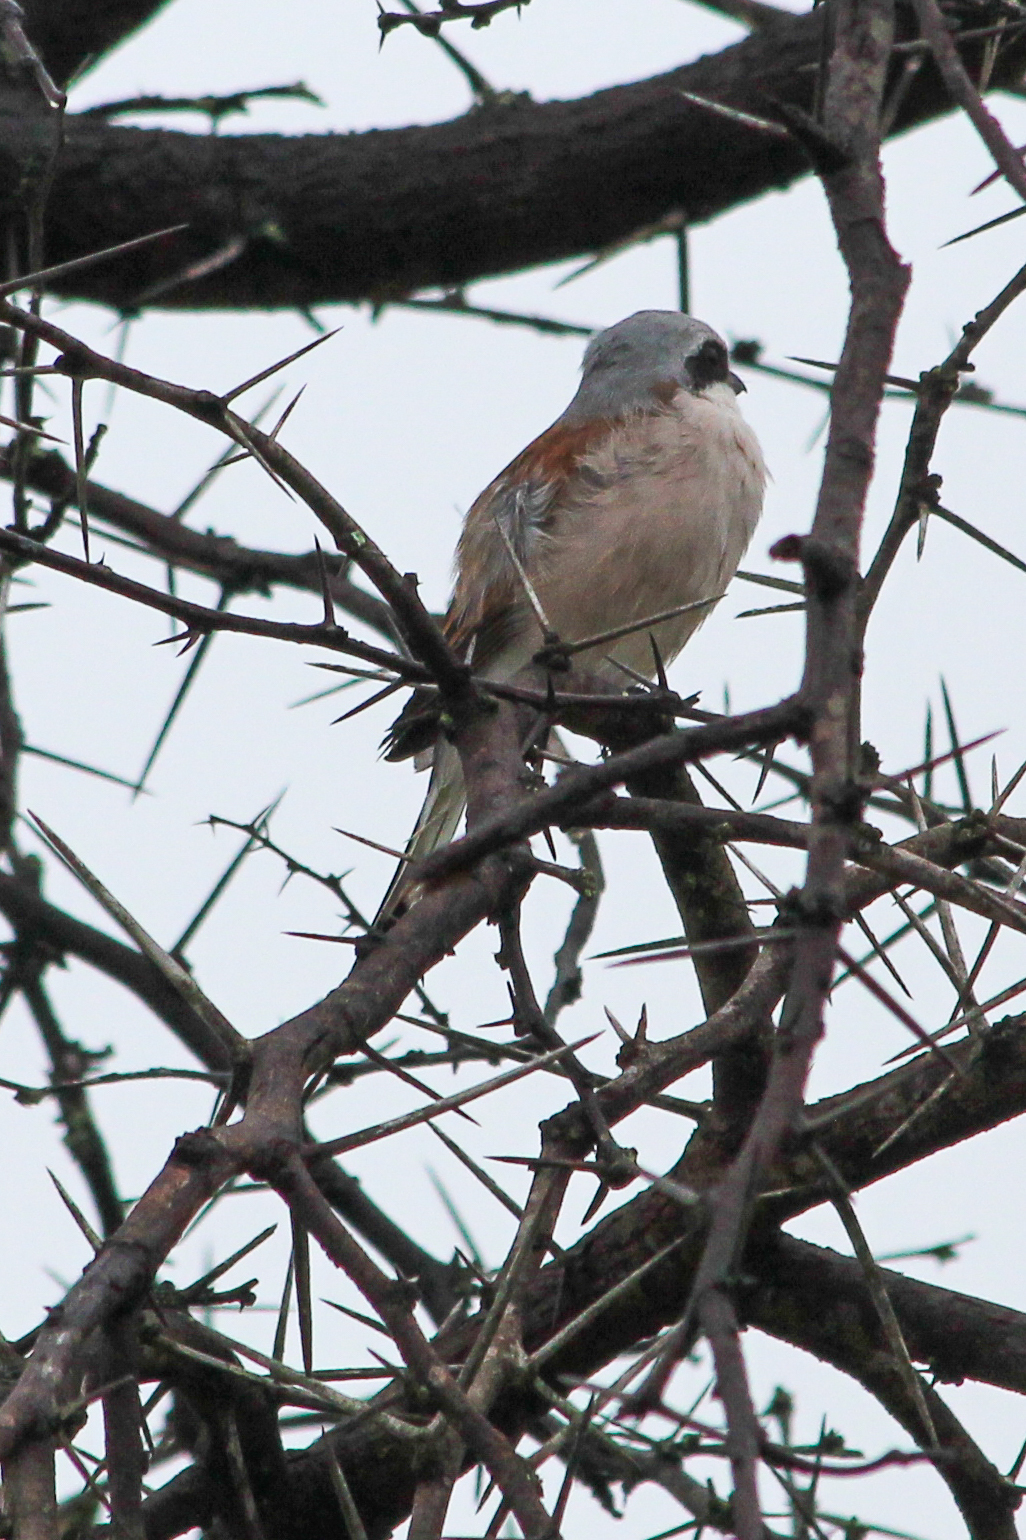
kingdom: Animalia
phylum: Chordata
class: Aves
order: Passeriformes
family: Laniidae
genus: Lanius
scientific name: Lanius collurio
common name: Red-backed shrike
